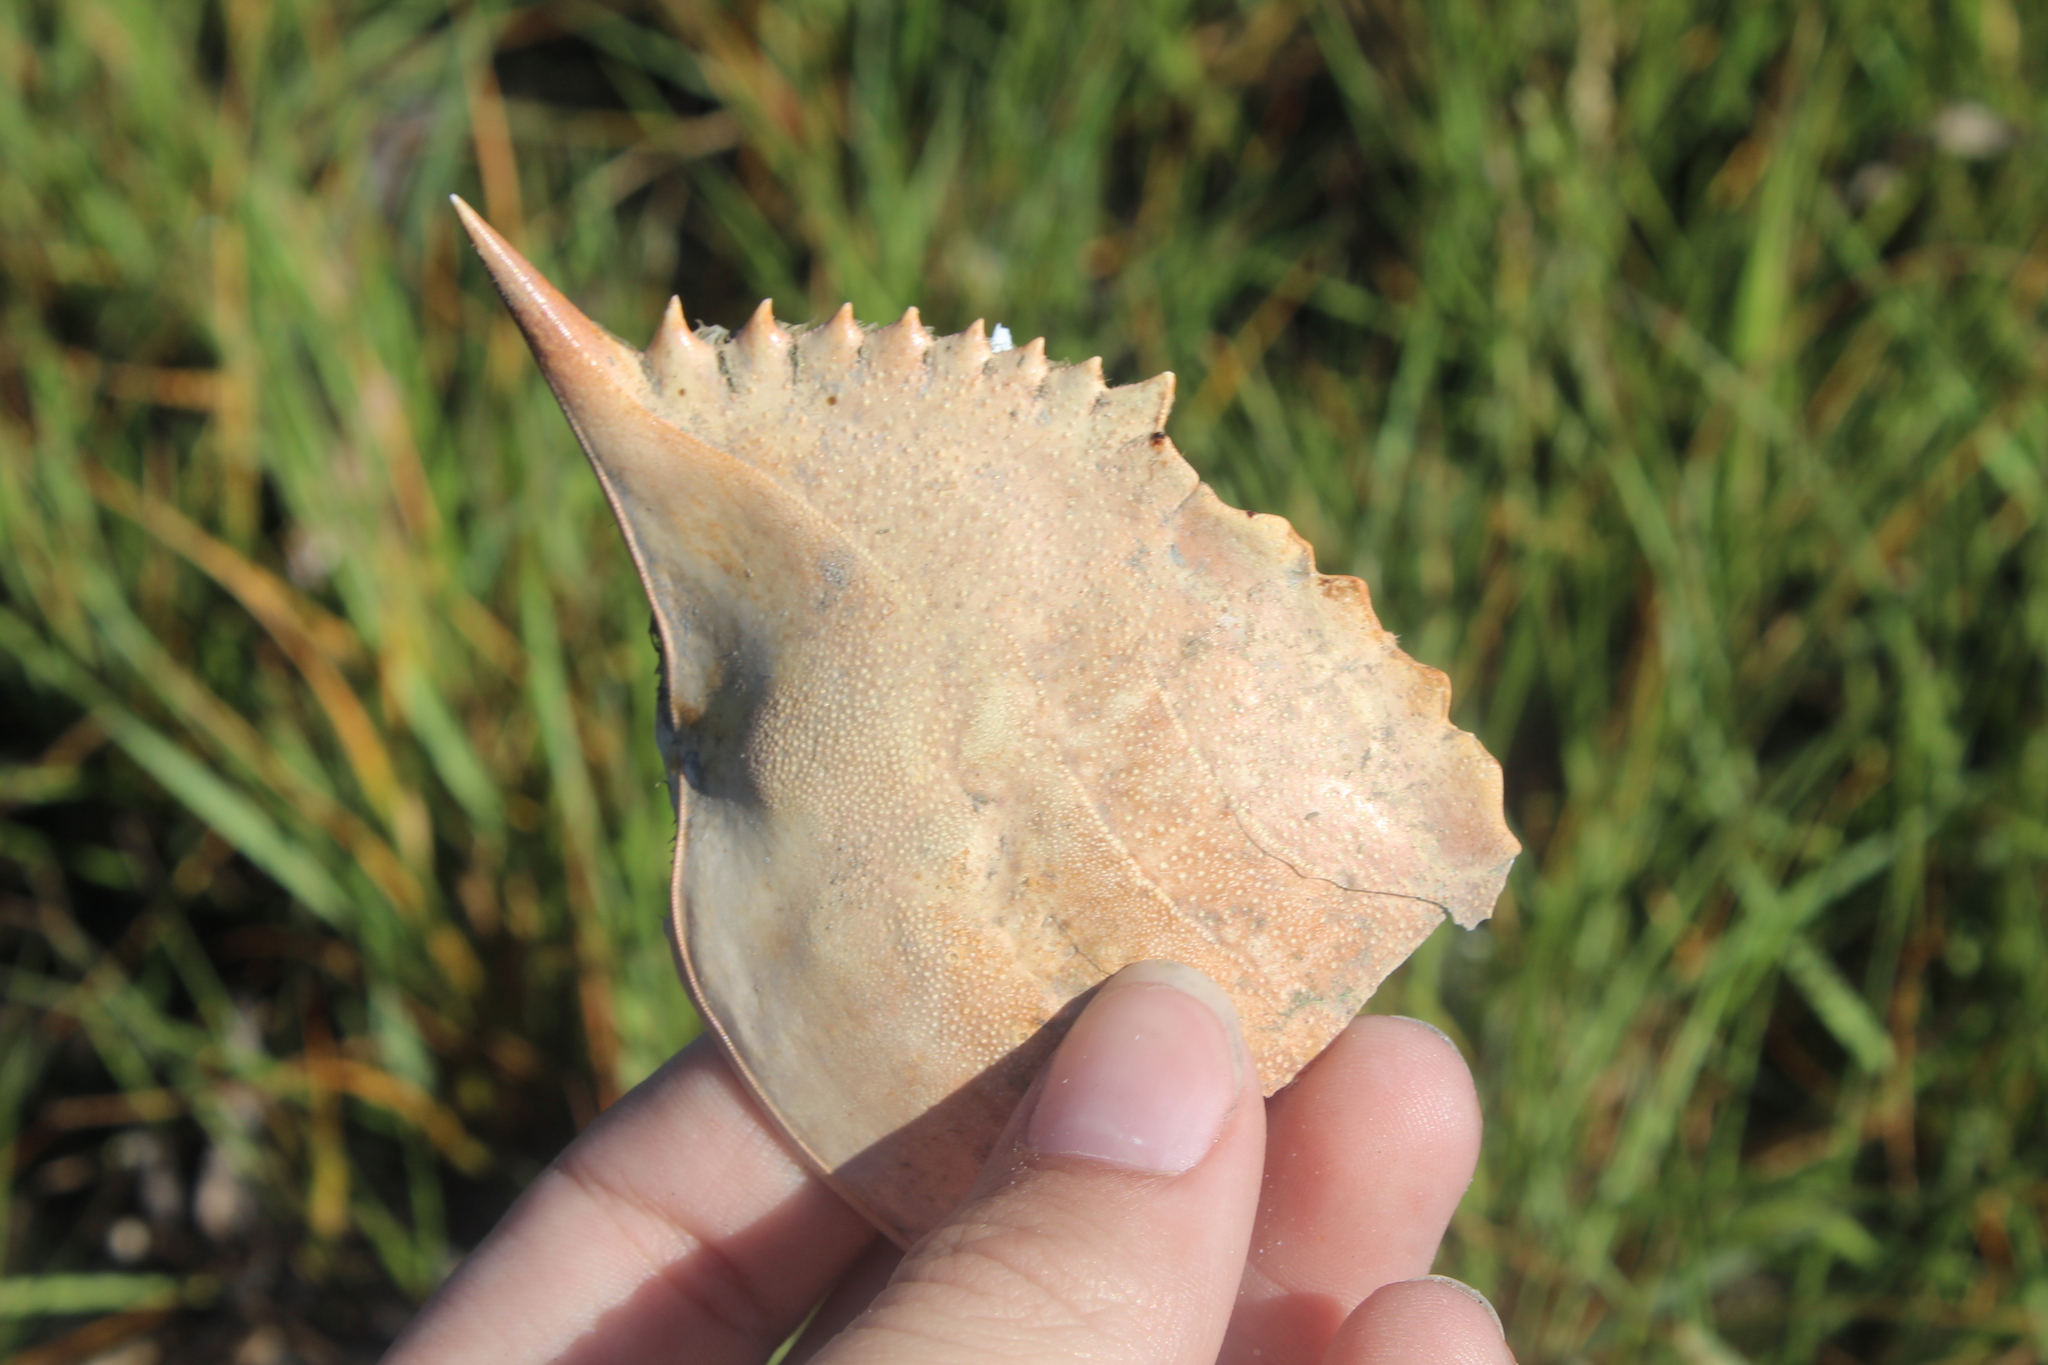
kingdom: Animalia
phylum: Arthropoda
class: Malacostraca
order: Decapoda
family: Portunidae
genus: Callinectes
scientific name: Callinectes sapidus
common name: Blue crab
